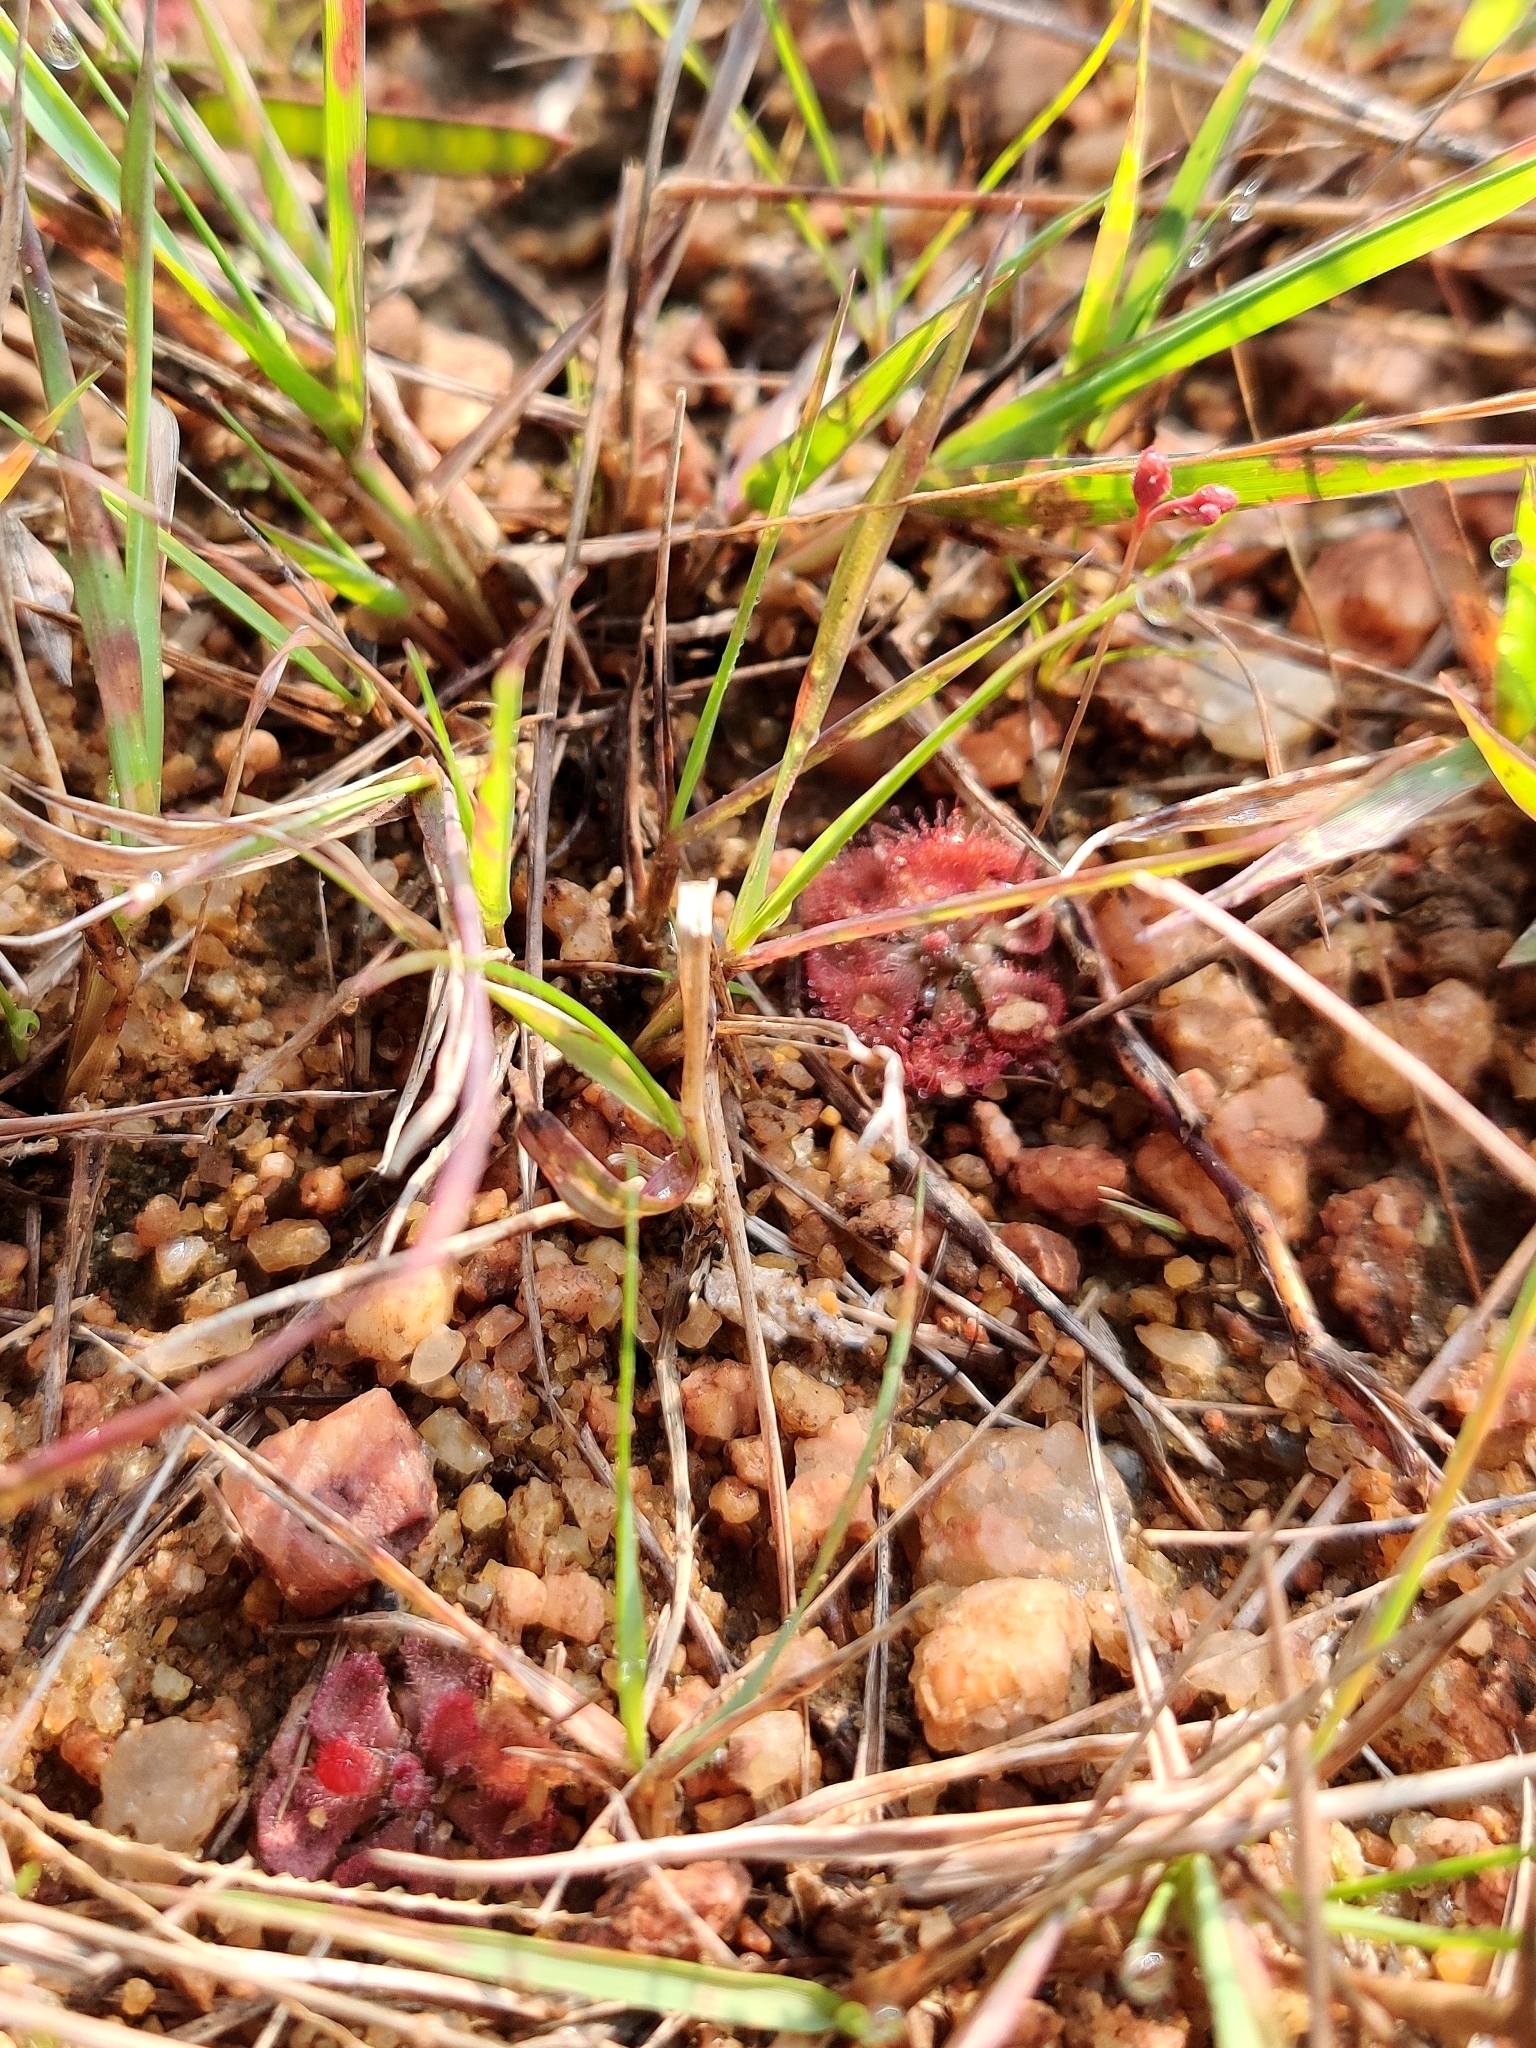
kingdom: Plantae
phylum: Tracheophyta
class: Magnoliopsida
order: Caryophyllales
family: Droseraceae
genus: Drosera
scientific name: Drosera spatulata
